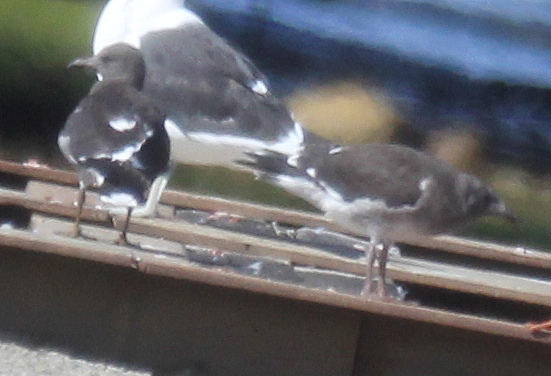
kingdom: Animalia
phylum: Chordata
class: Aves
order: Charadriiformes
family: Laridae
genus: Leucophaeus
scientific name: Leucophaeus scoresbii
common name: Dolphin gull
